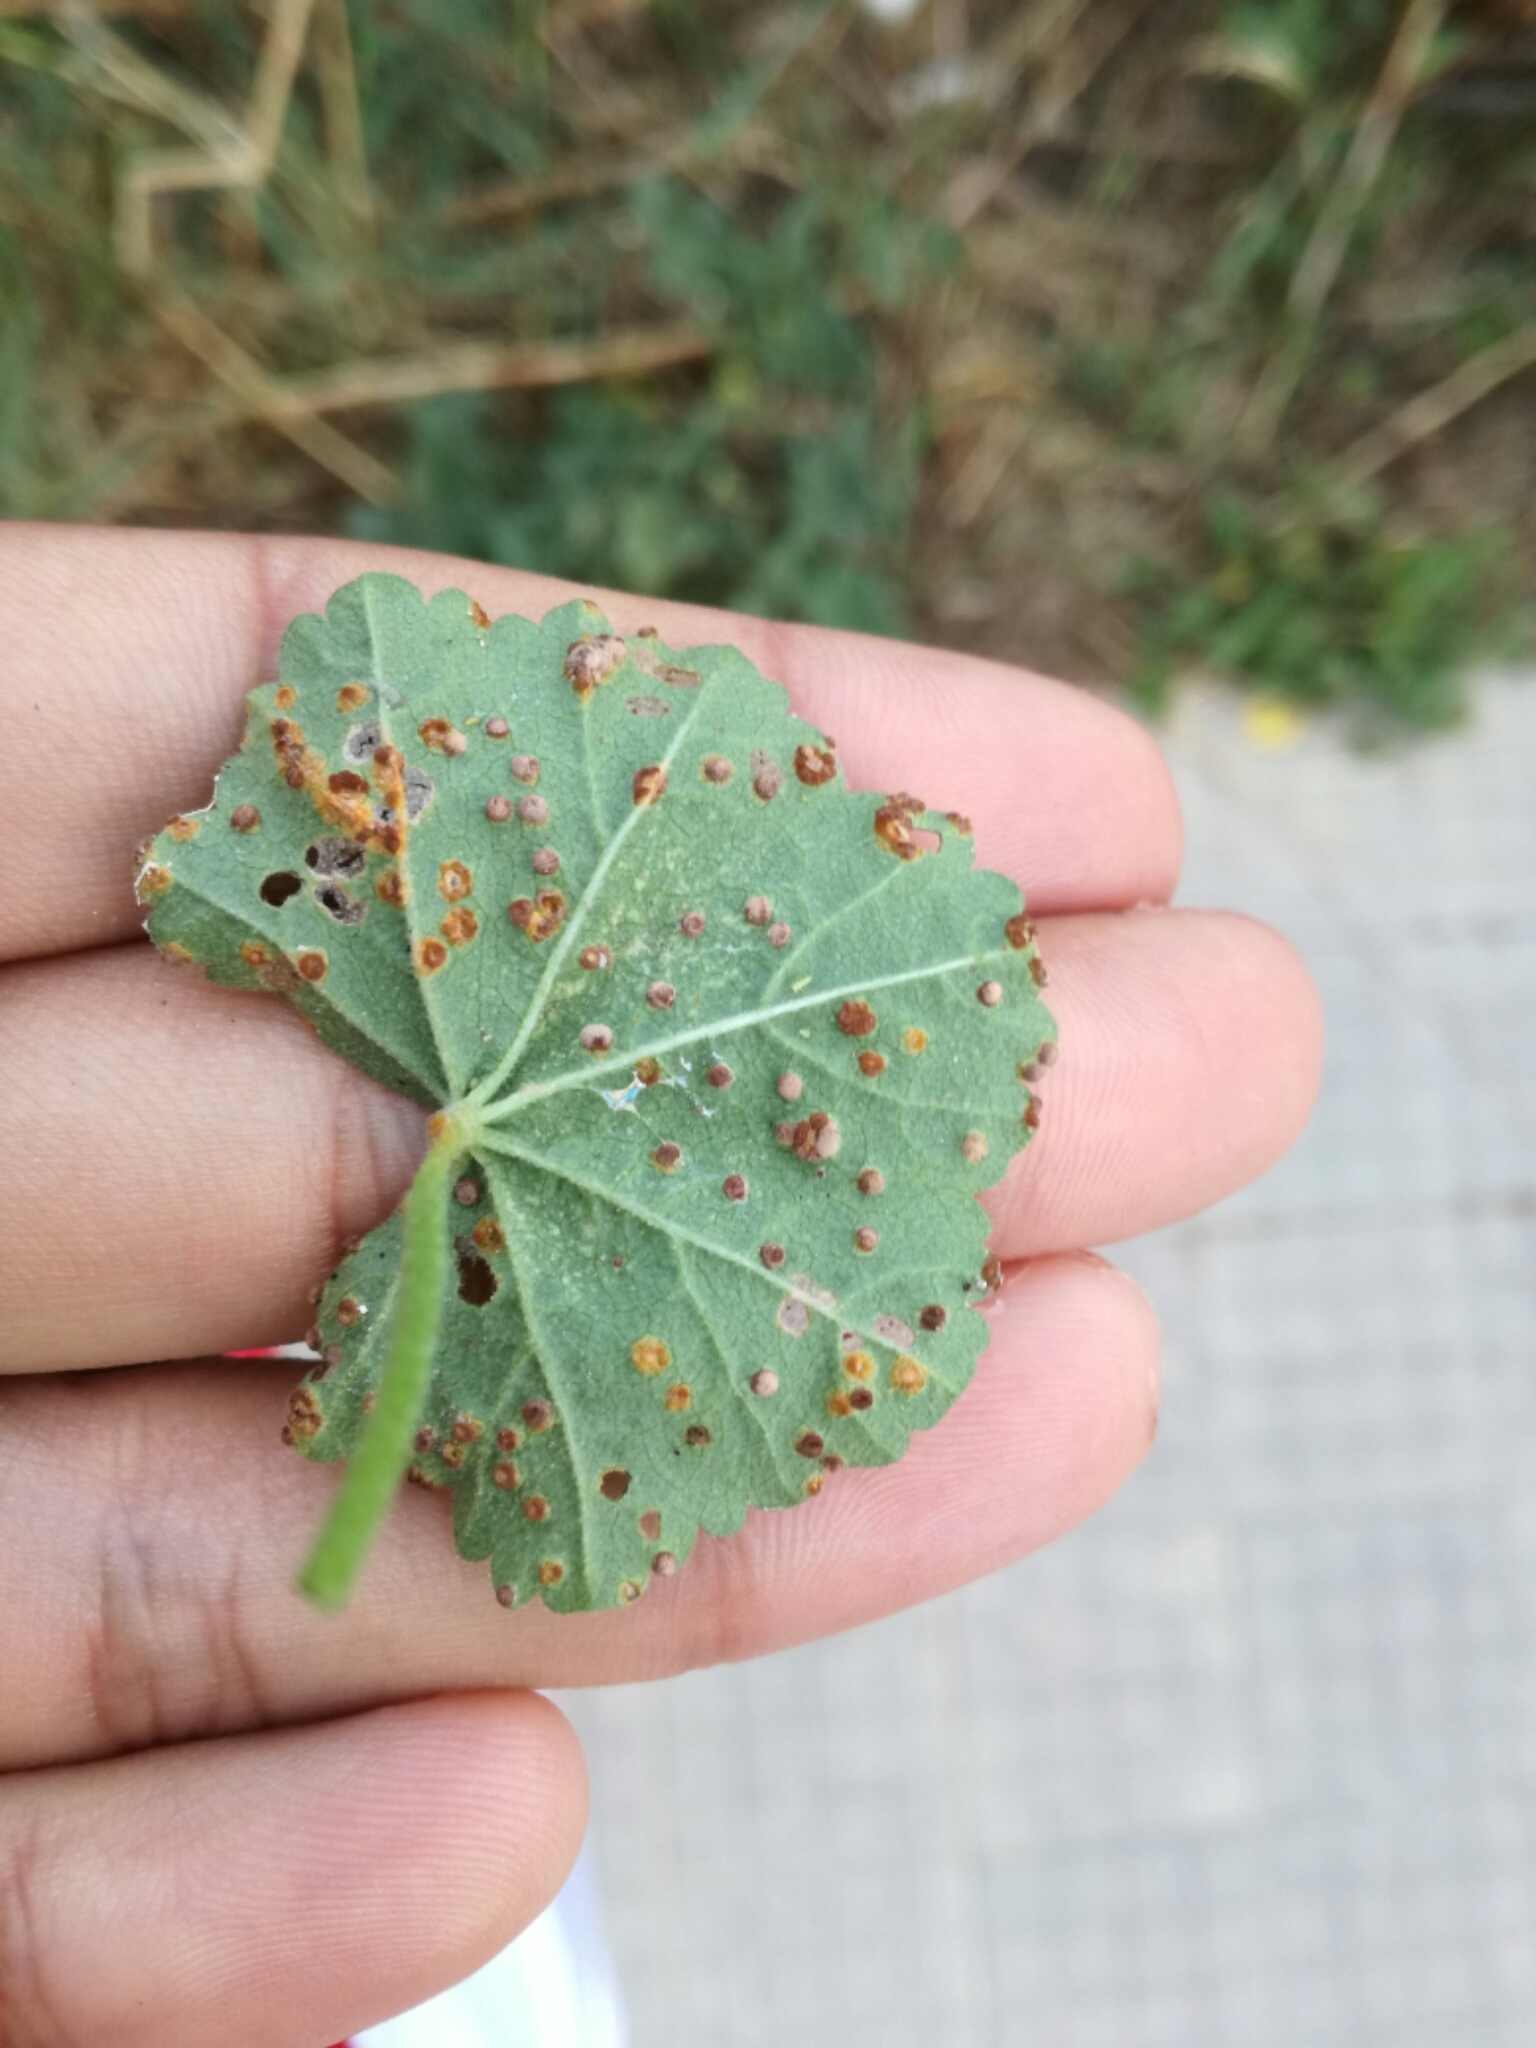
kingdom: Fungi
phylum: Basidiomycota
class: Pucciniomycetes
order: Pucciniales
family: Pucciniaceae
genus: Puccinia
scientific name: Puccinia malvacearum
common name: Hollyhock rust
